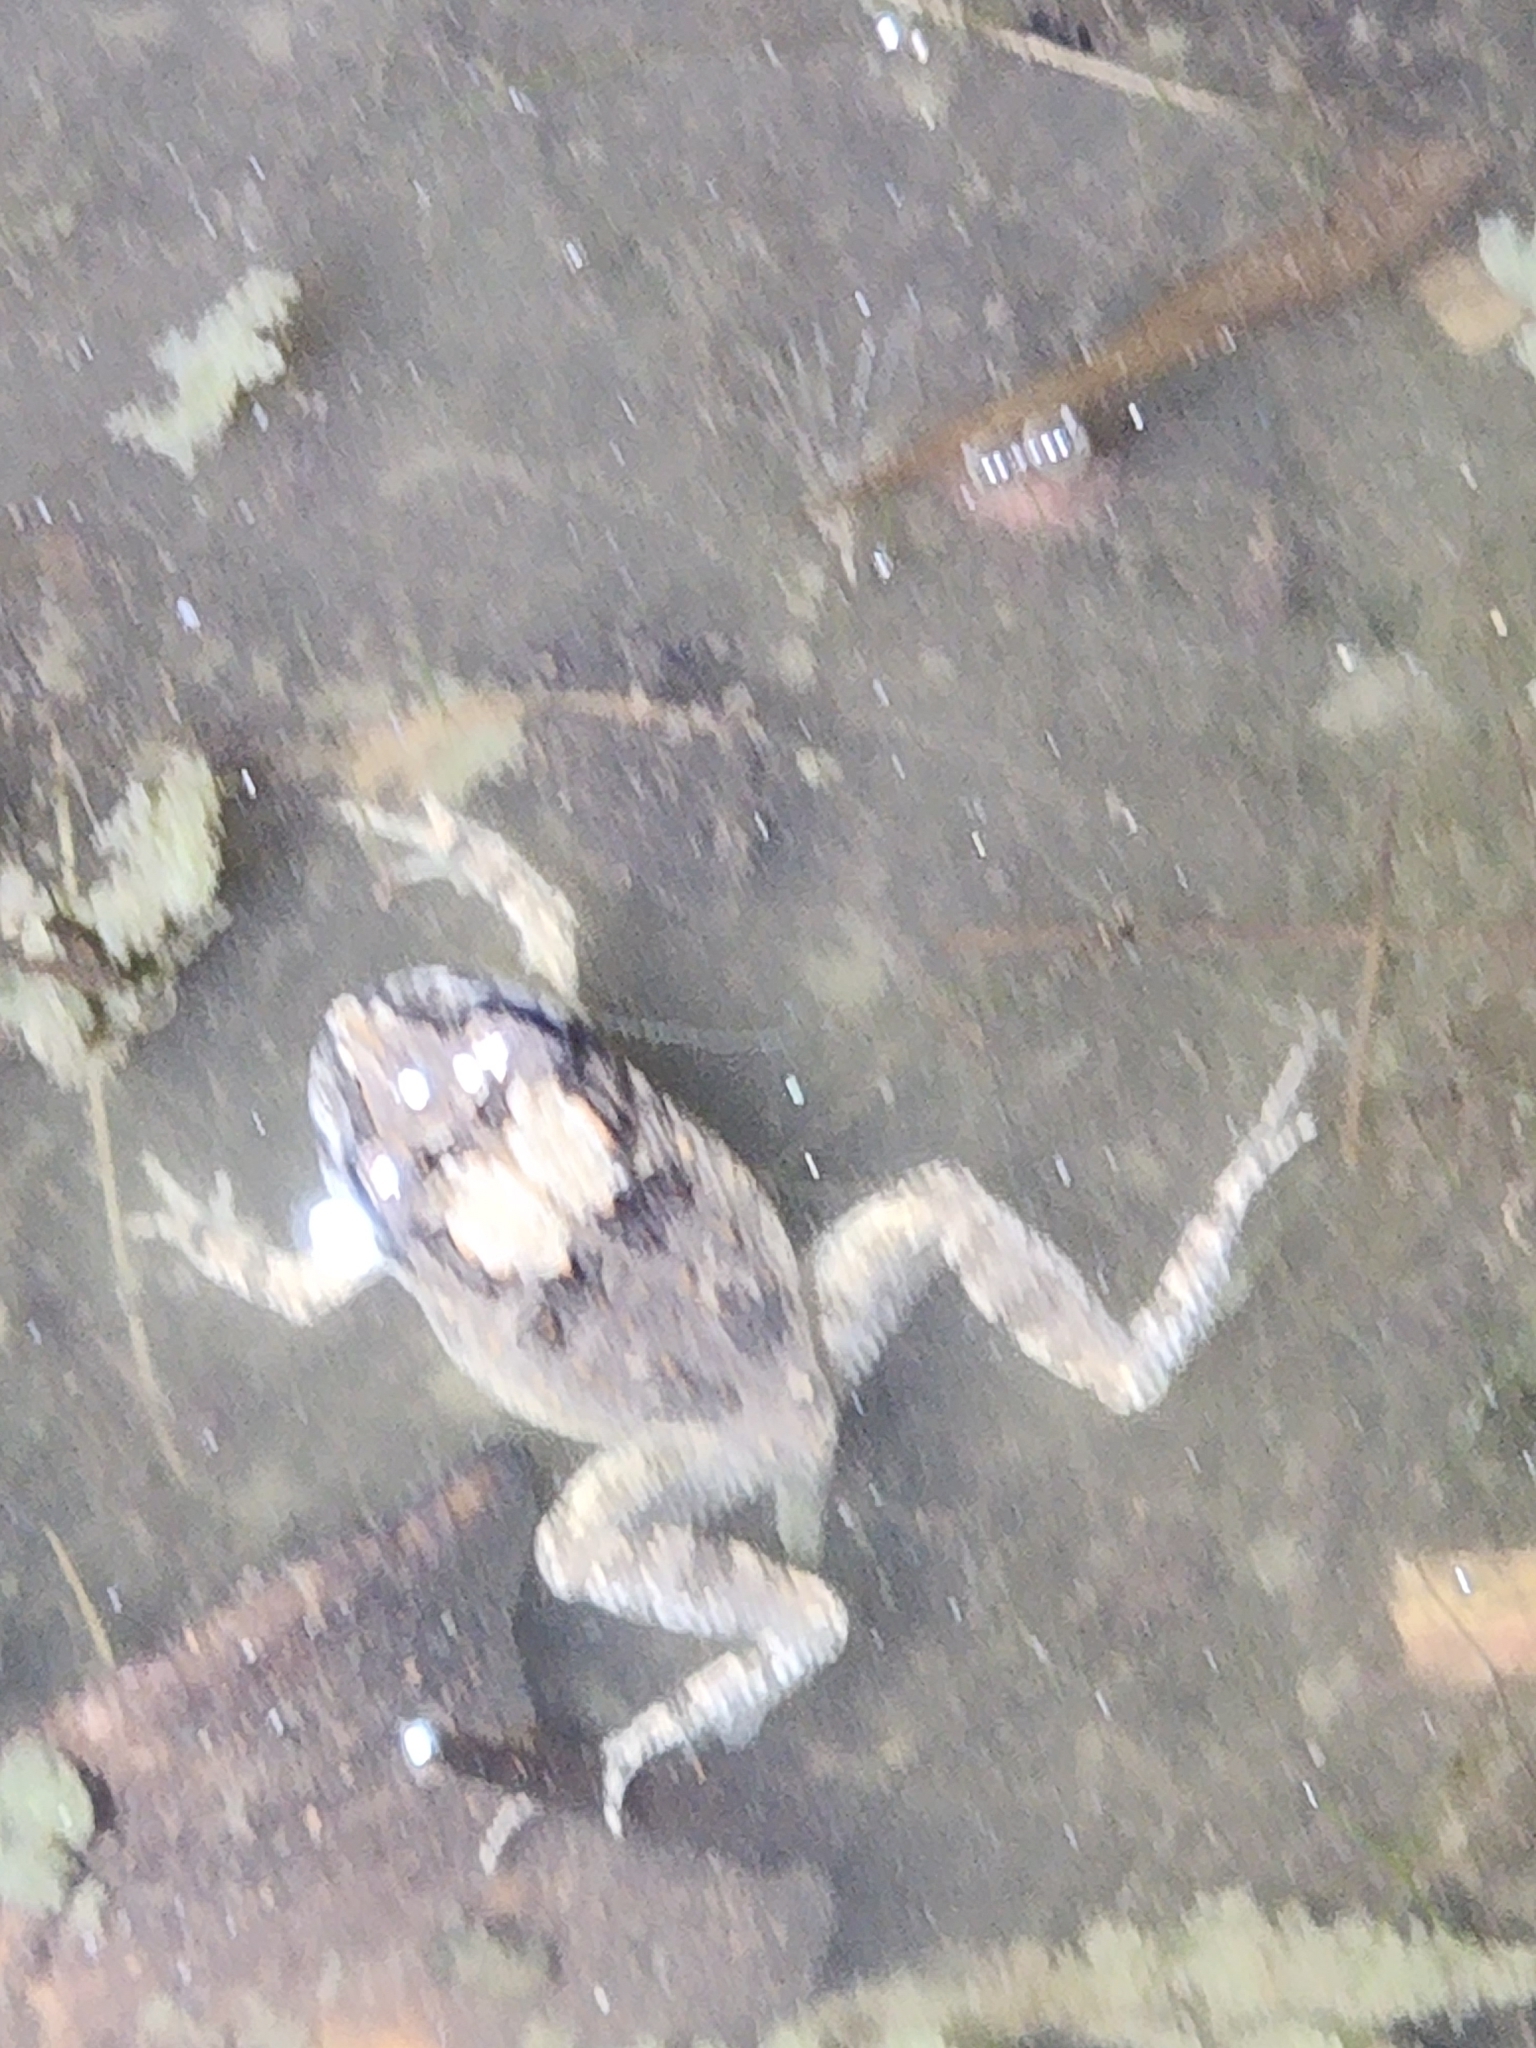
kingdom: Animalia
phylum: Chordata
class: Amphibia
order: Anura
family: Limnodynastidae
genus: Platyplectrum
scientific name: Platyplectrum ornatum
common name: Ornate burrowing frog
